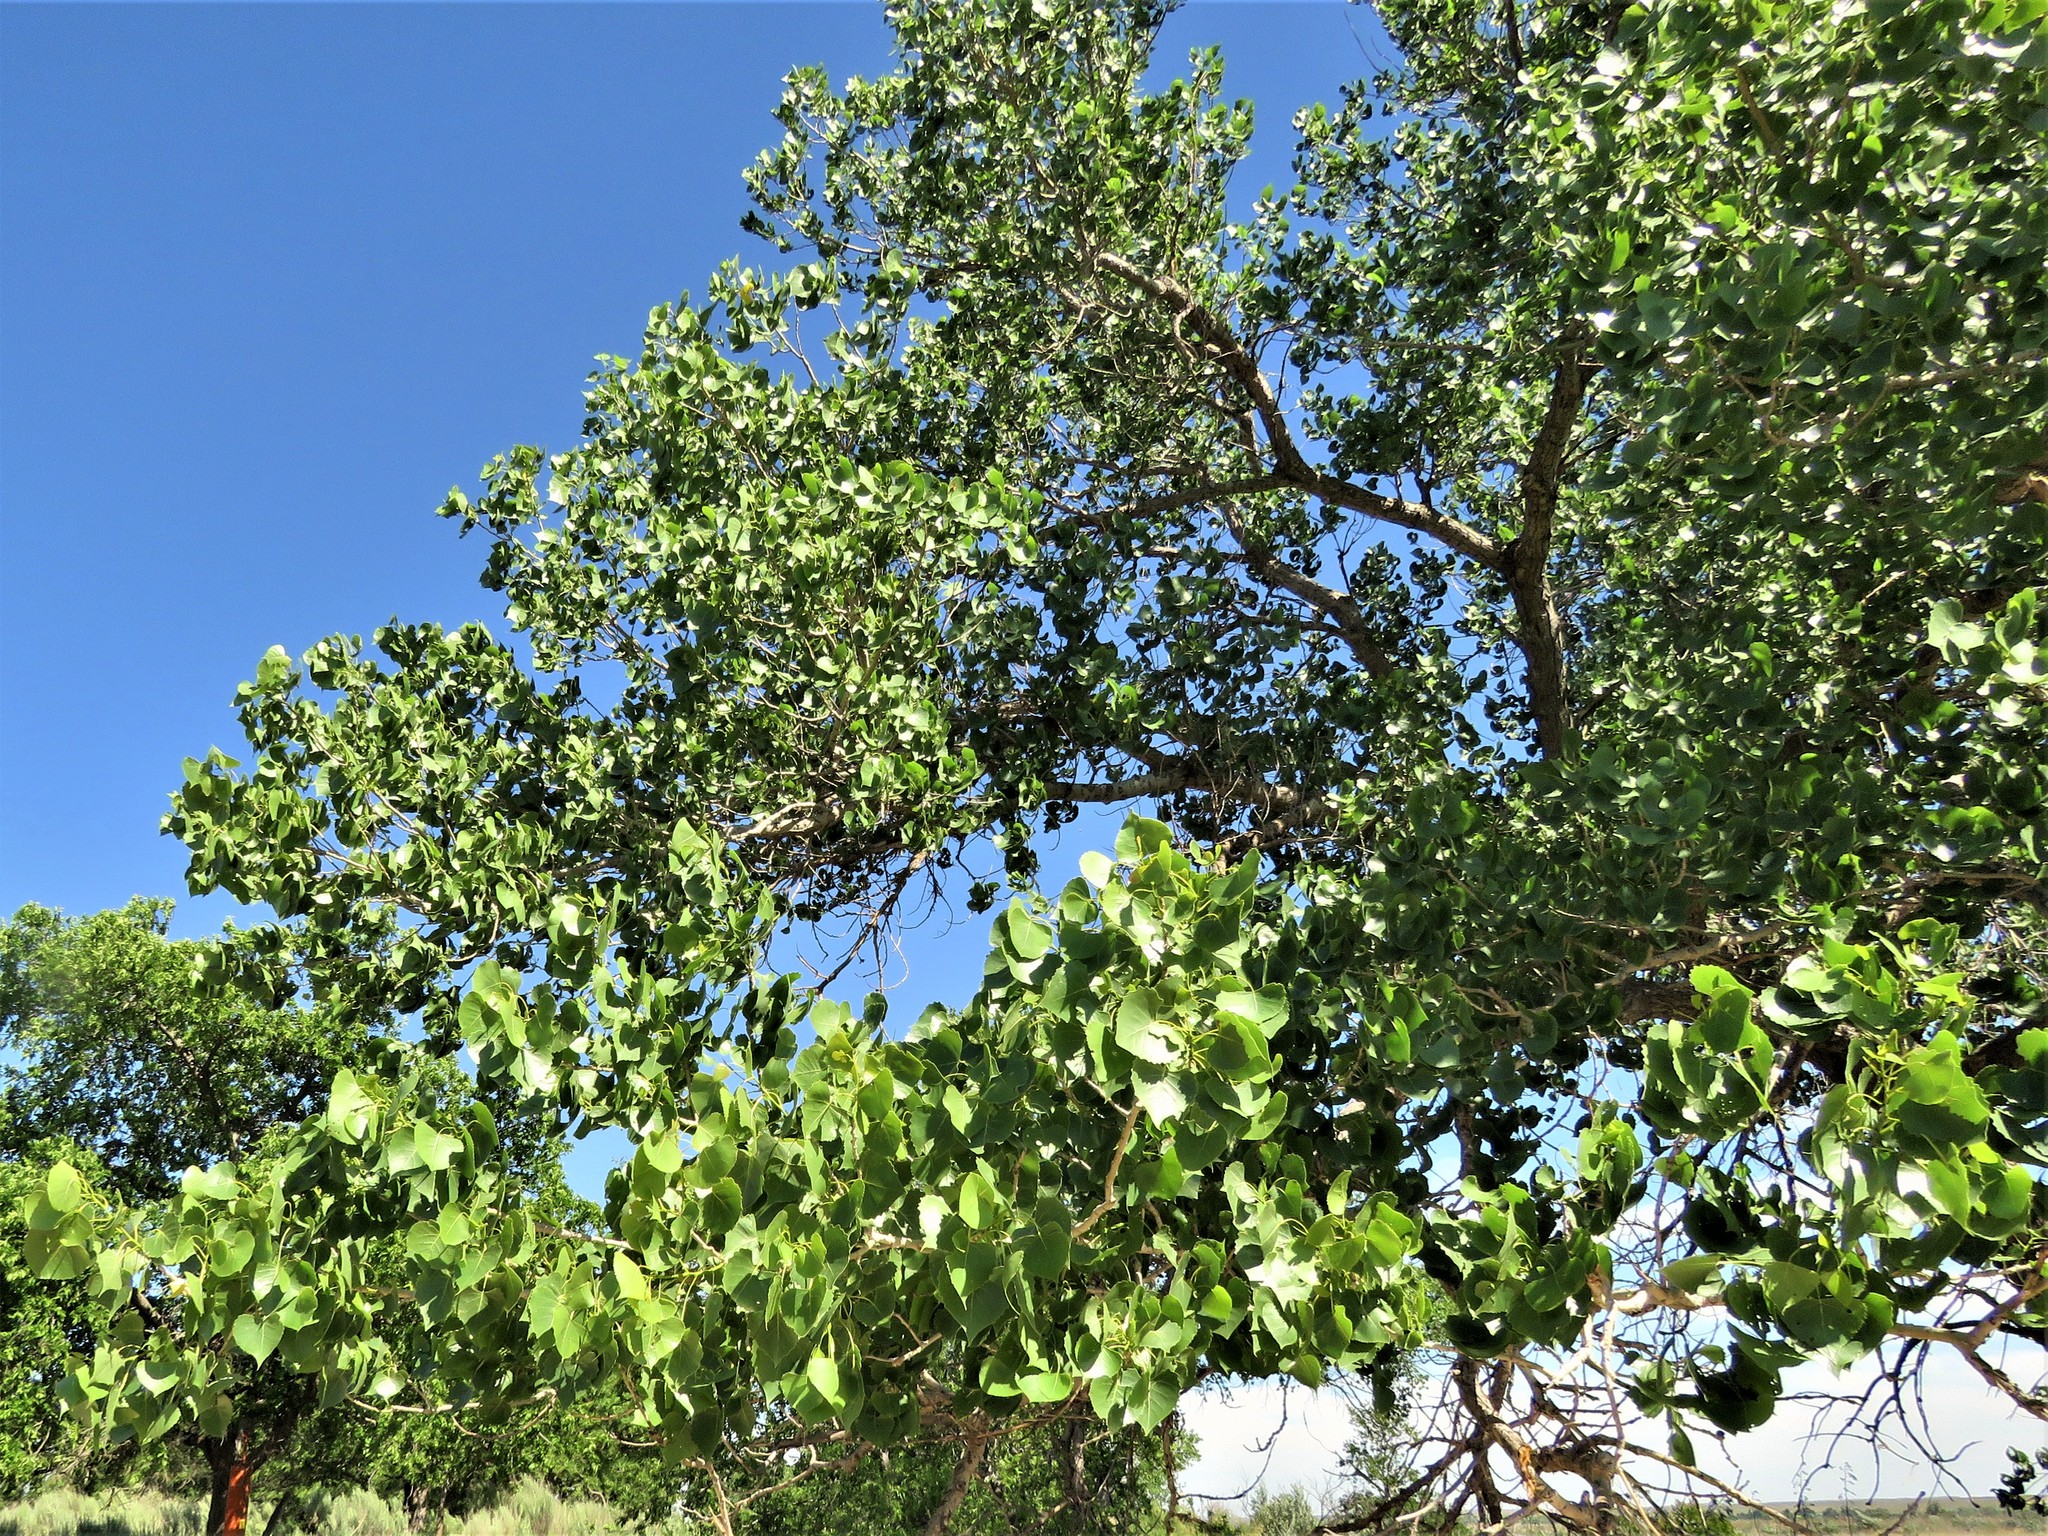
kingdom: Plantae
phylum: Tracheophyta
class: Magnoliopsida
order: Malpighiales
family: Salicaceae
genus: Populus
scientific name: Populus deltoides
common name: Eastern cottonwood
